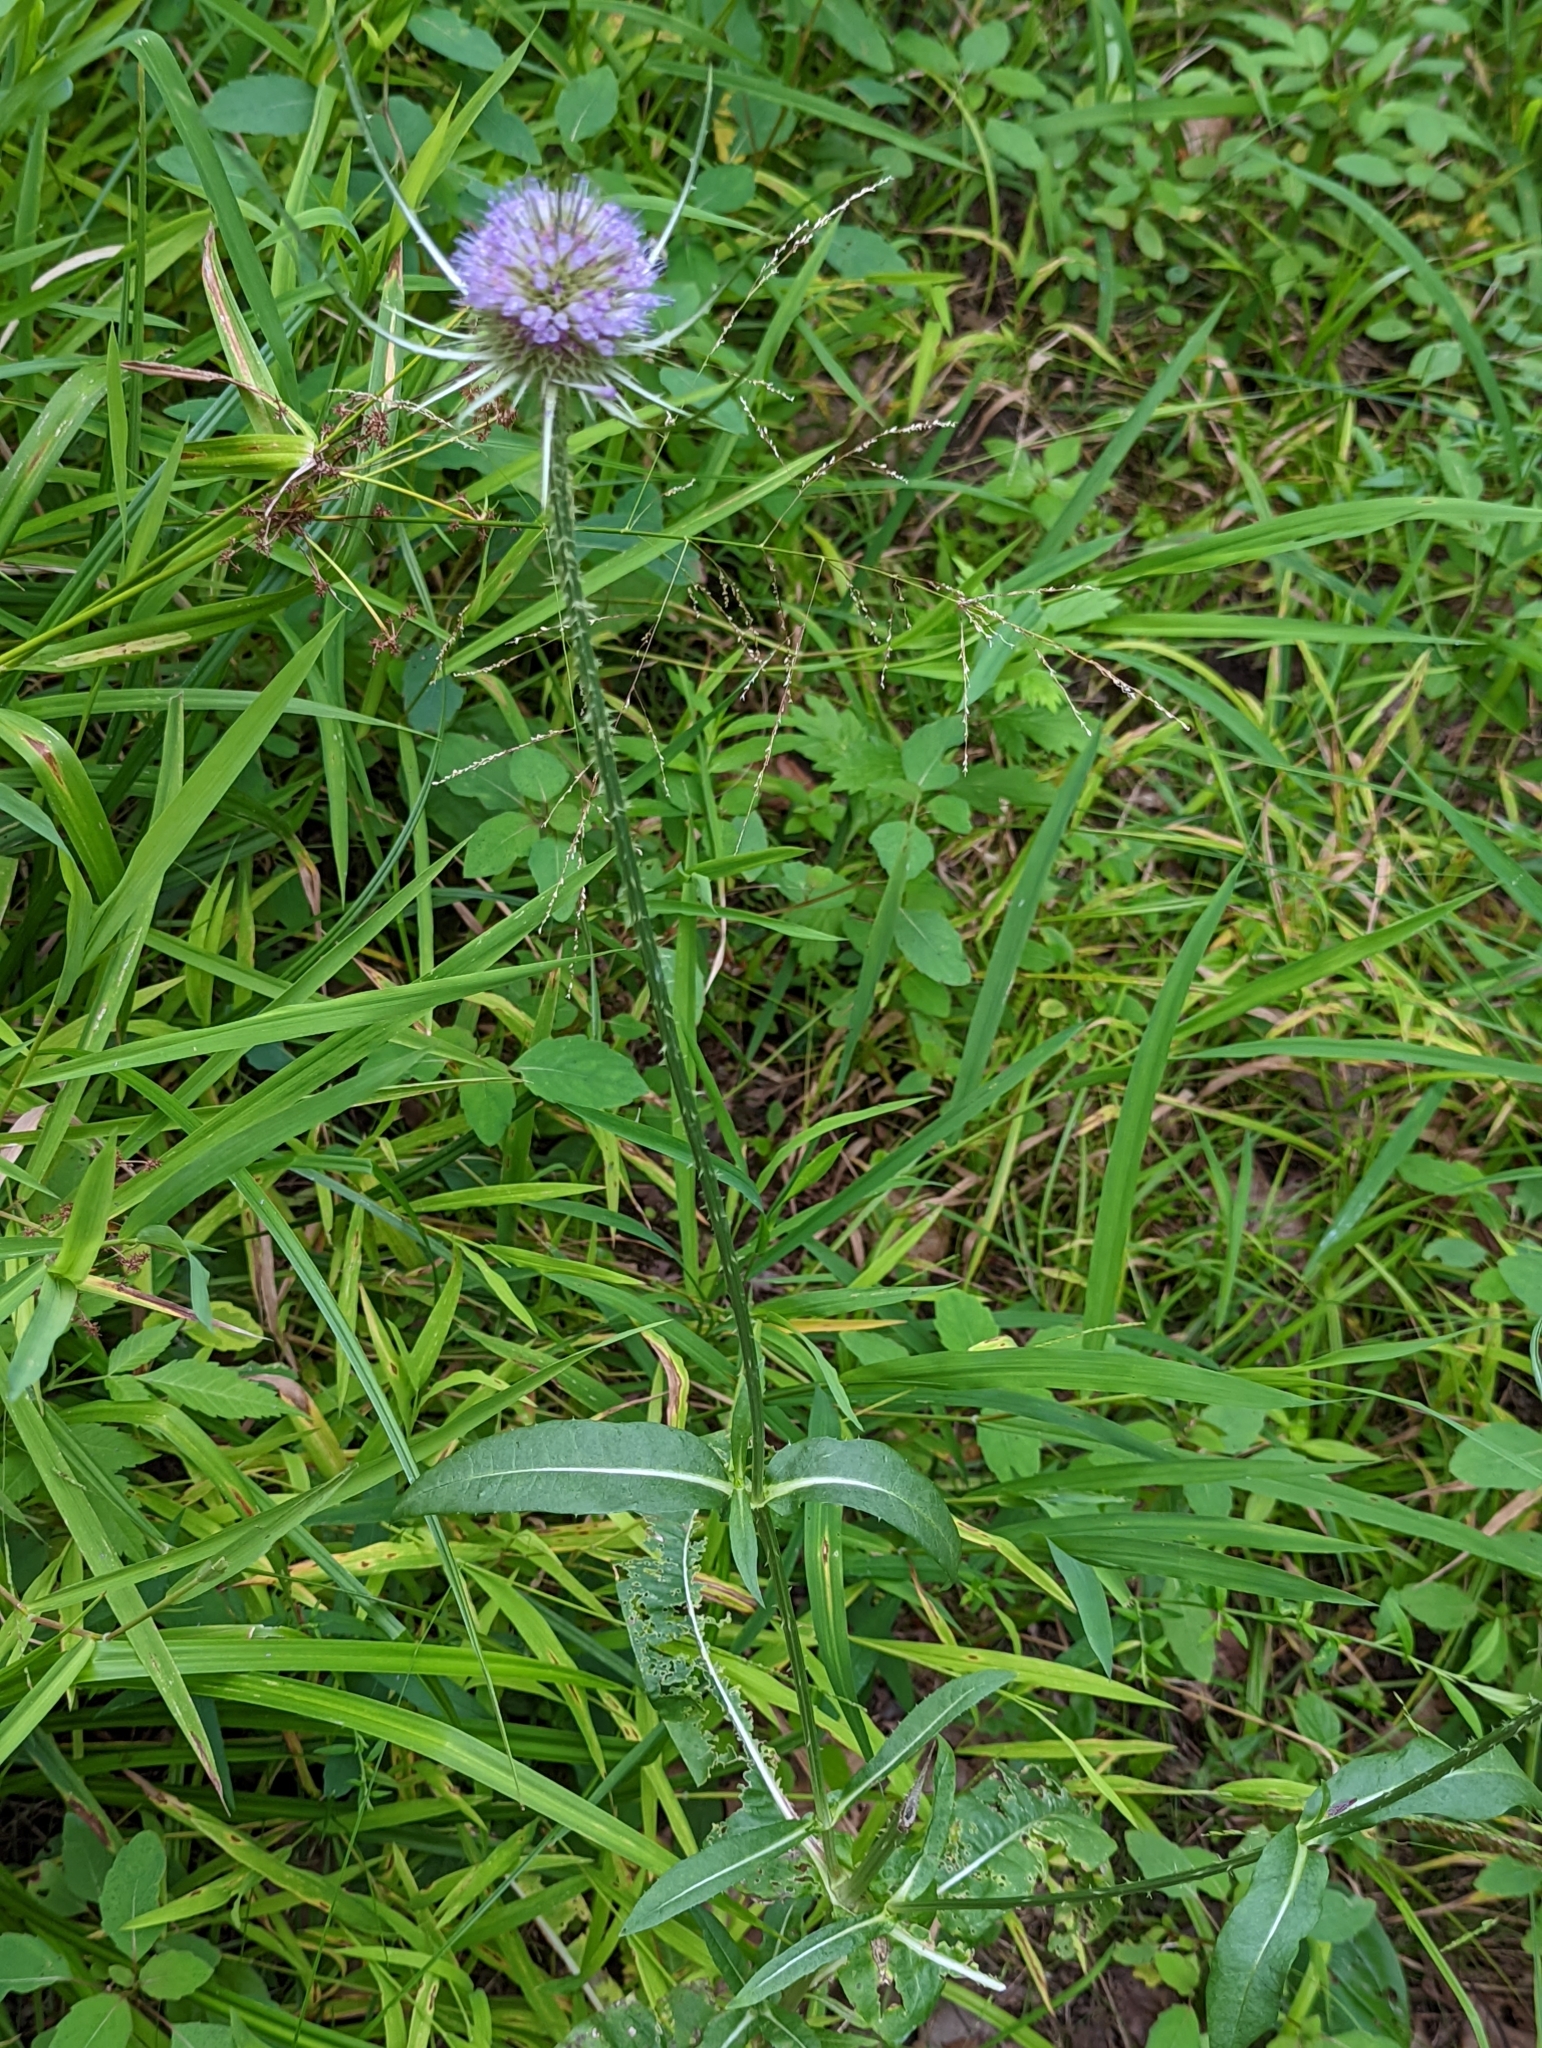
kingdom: Plantae
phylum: Tracheophyta
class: Magnoliopsida
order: Dipsacales
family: Caprifoliaceae
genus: Dipsacus
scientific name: Dipsacus fullonum
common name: Teasel
